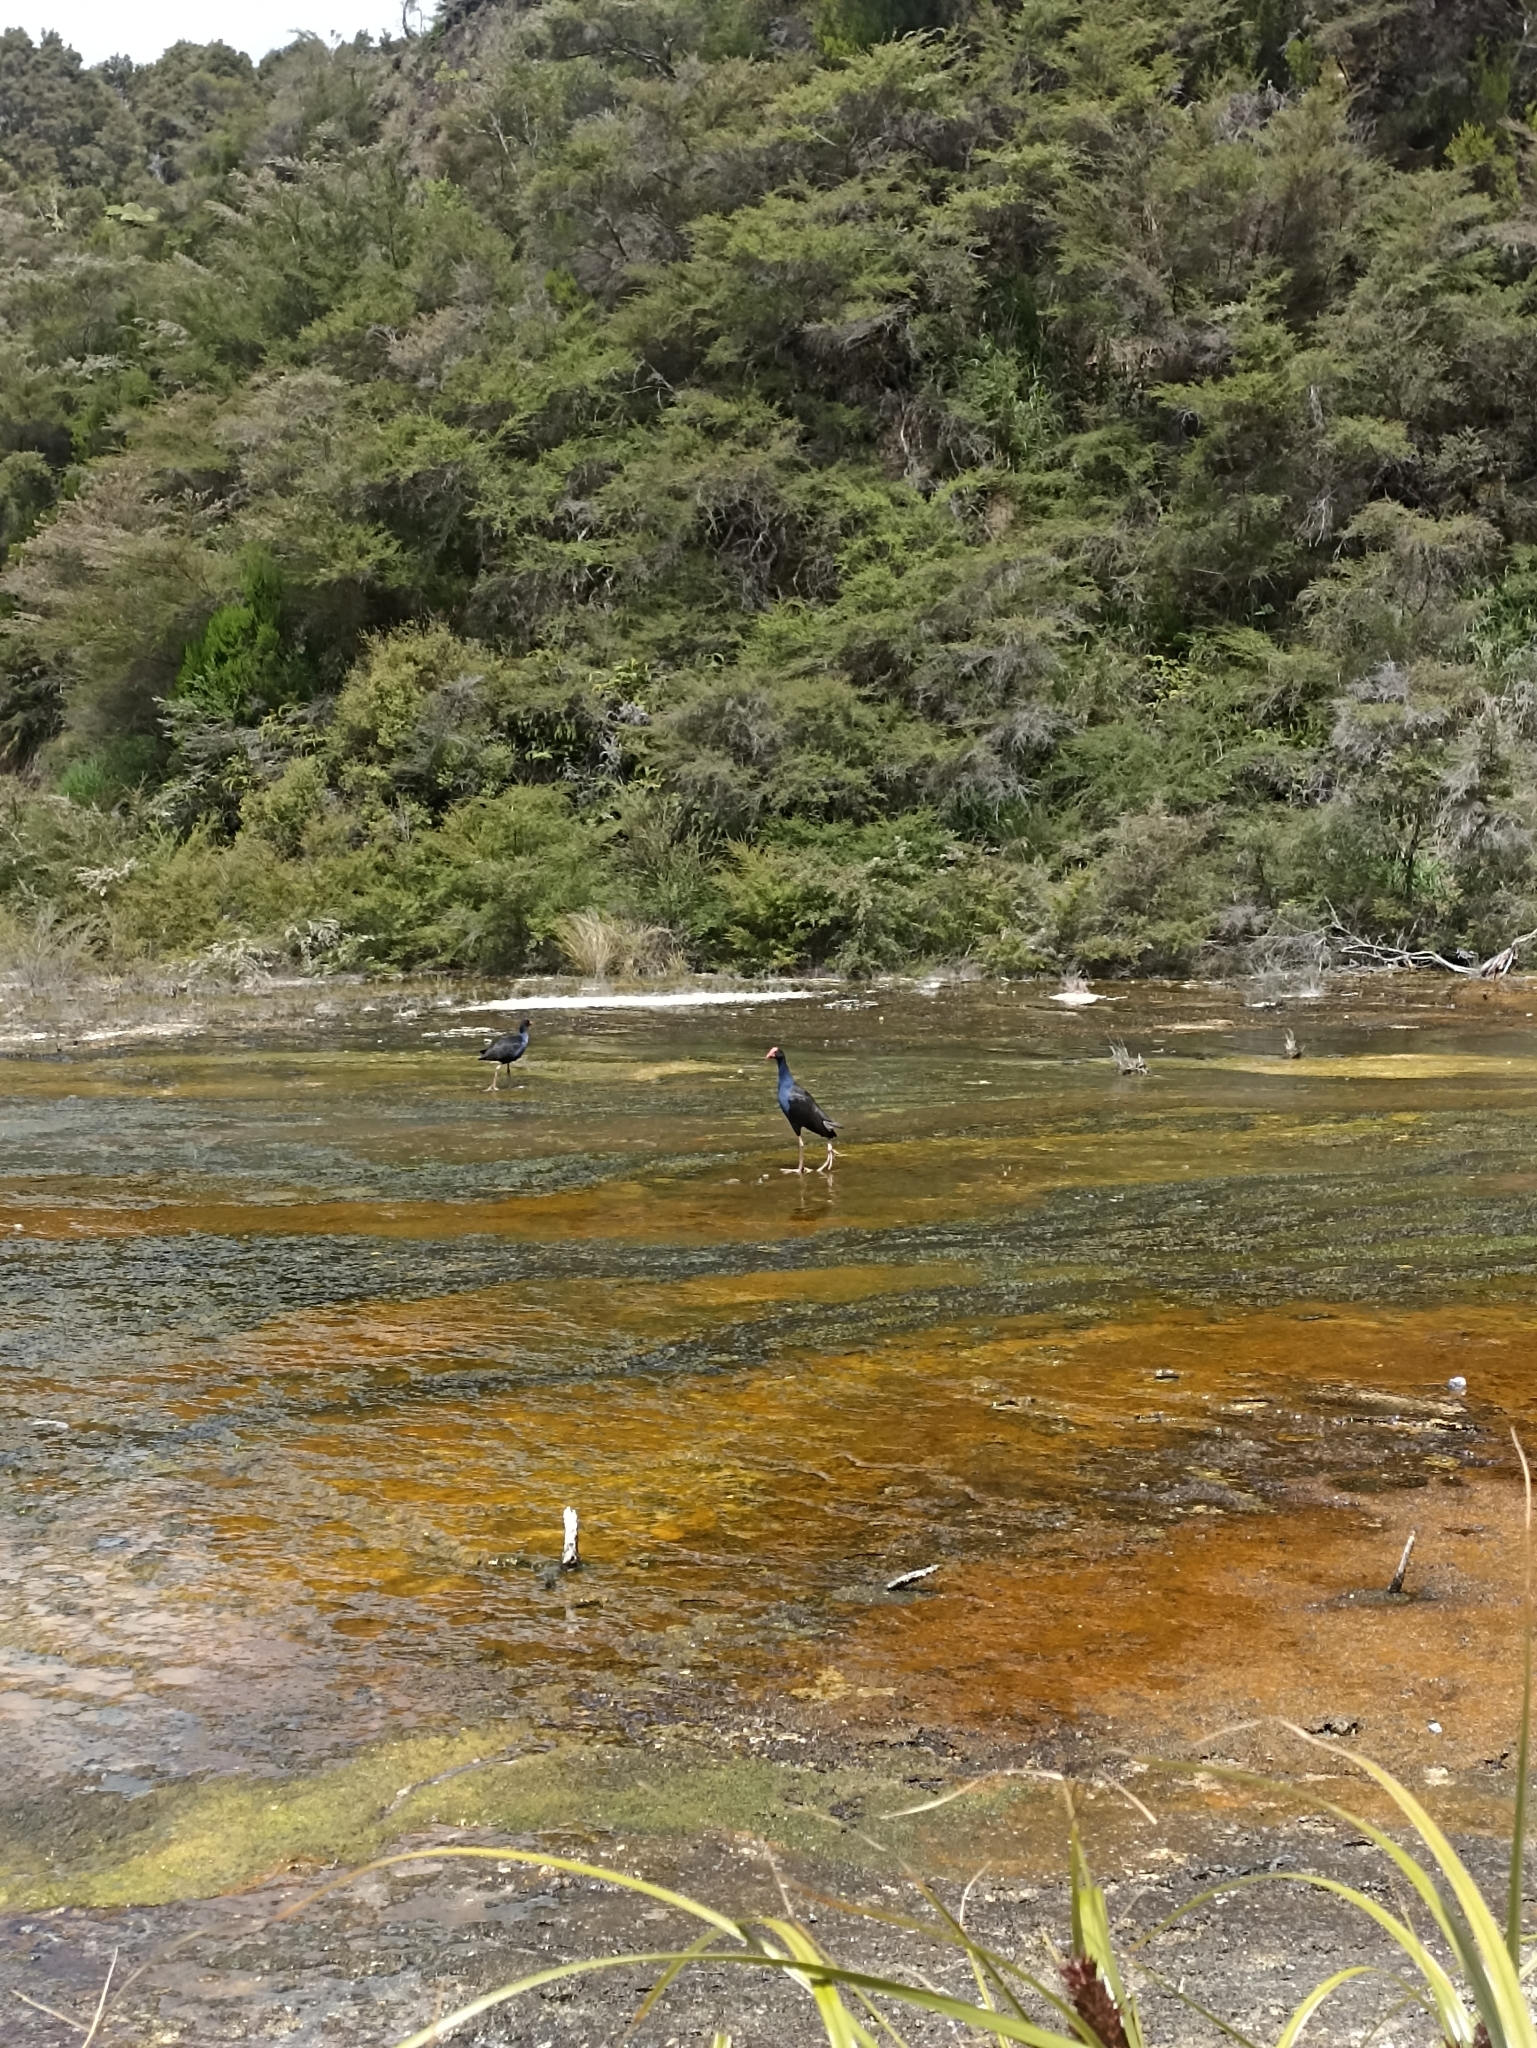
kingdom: Animalia
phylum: Chordata
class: Aves
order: Gruiformes
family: Rallidae
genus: Porphyrio
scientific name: Porphyrio melanotus
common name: Australasian swamphen
